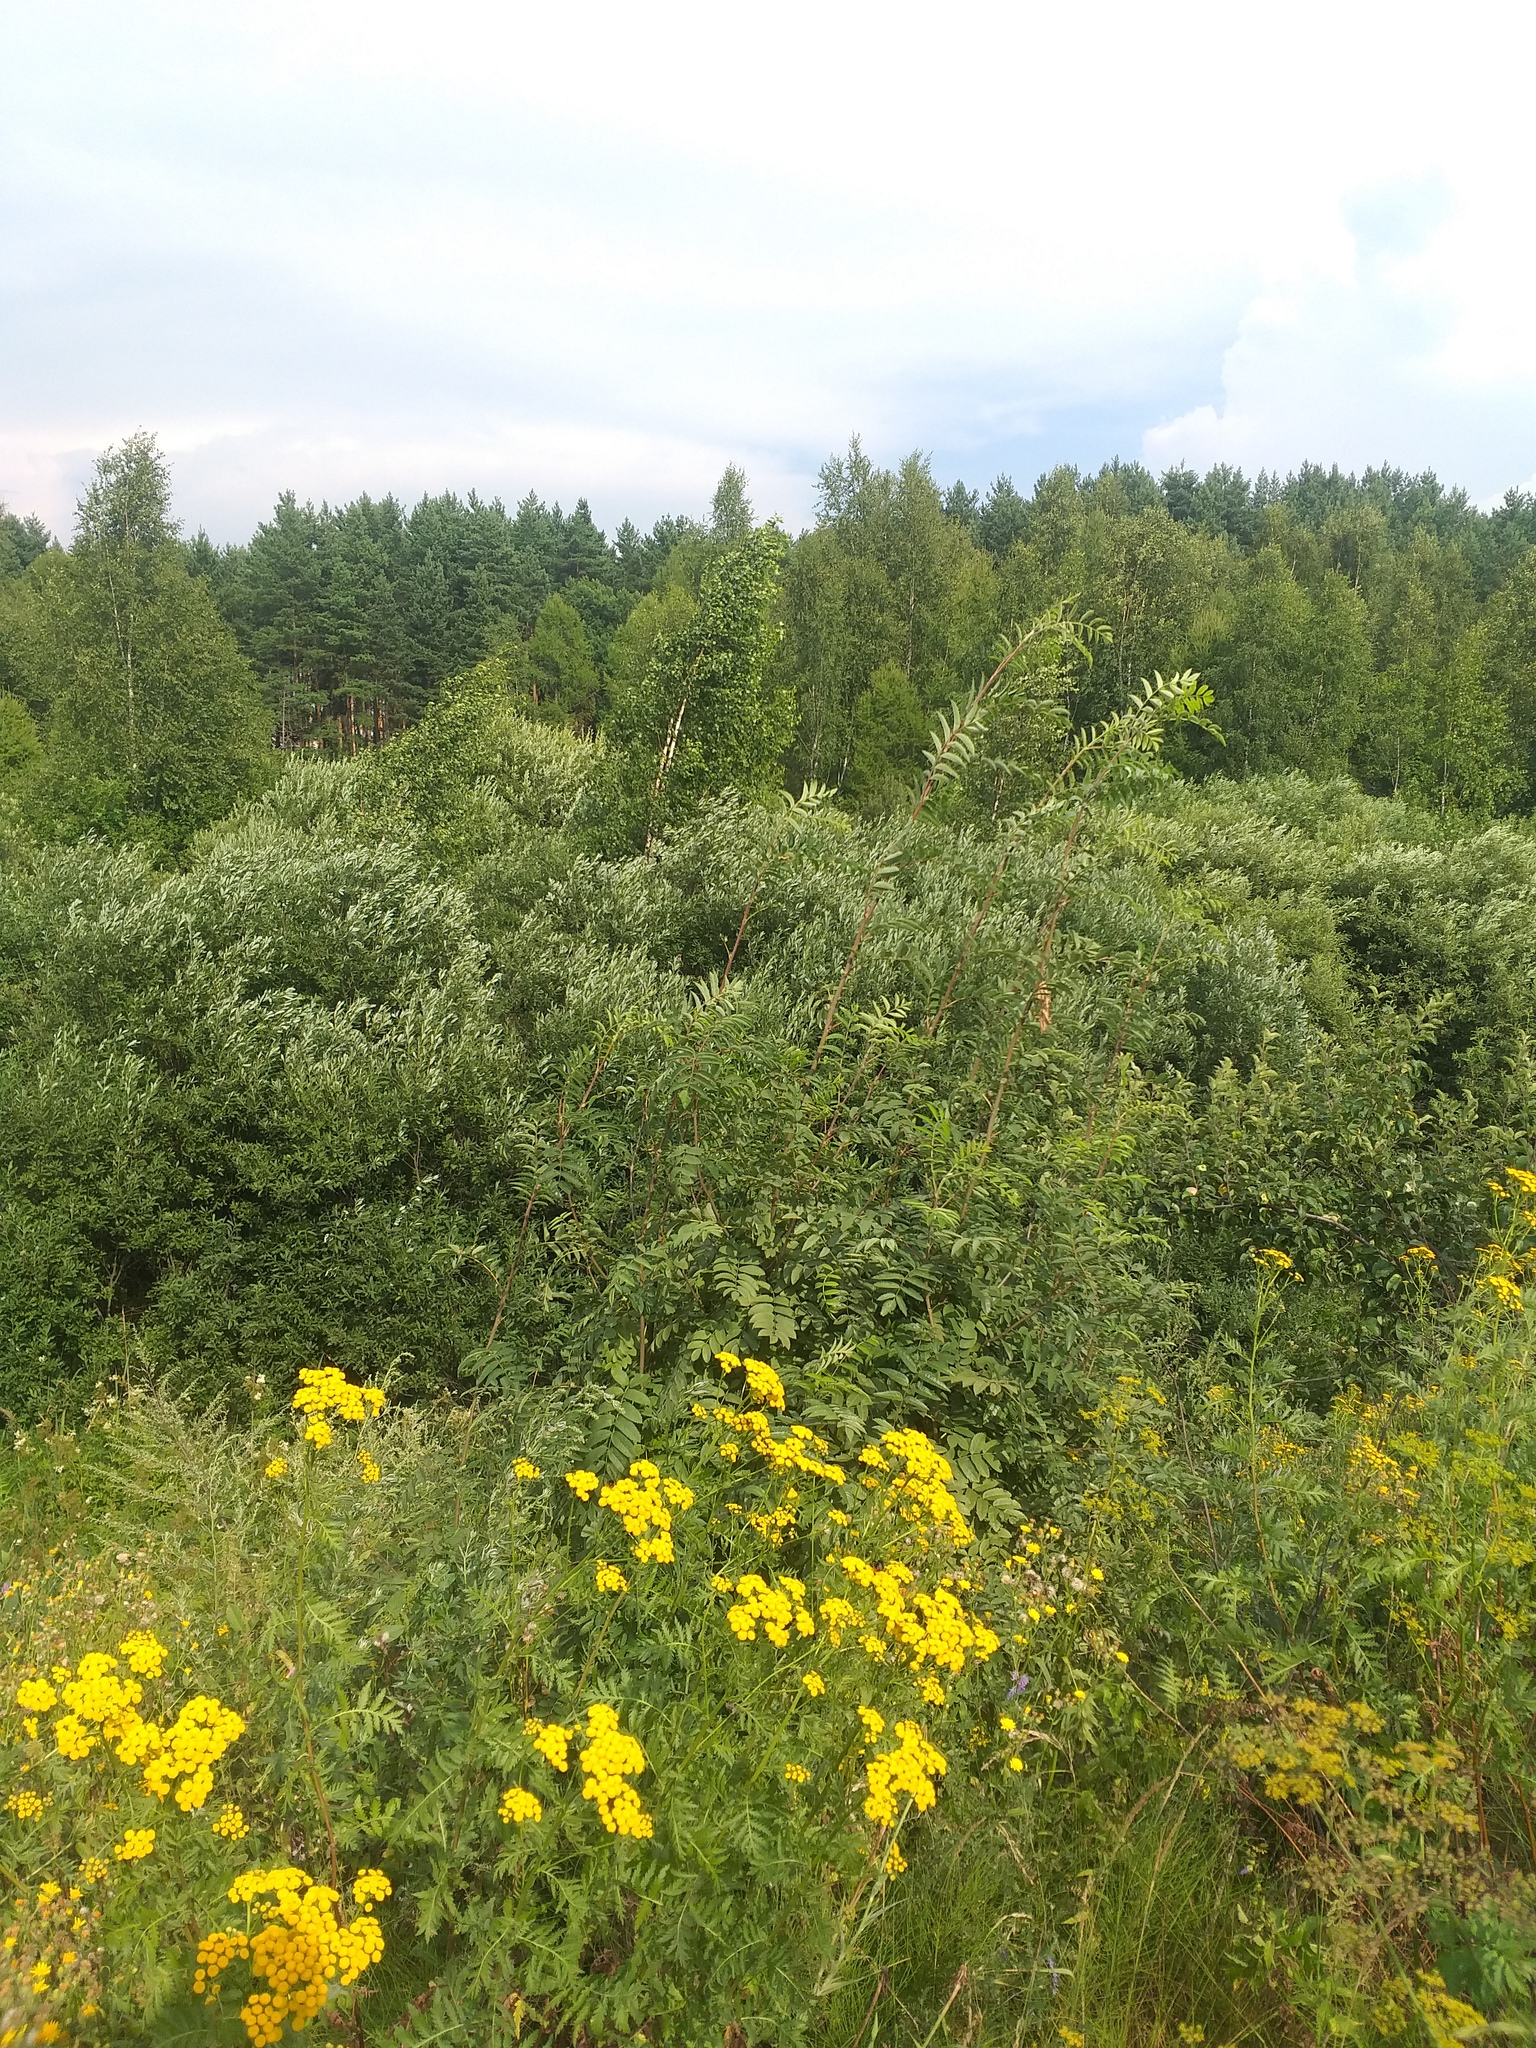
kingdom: Plantae
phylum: Tracheophyta
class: Magnoliopsida
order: Rosales
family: Rosaceae
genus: Sorbus
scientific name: Sorbus aucuparia
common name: Rowan
